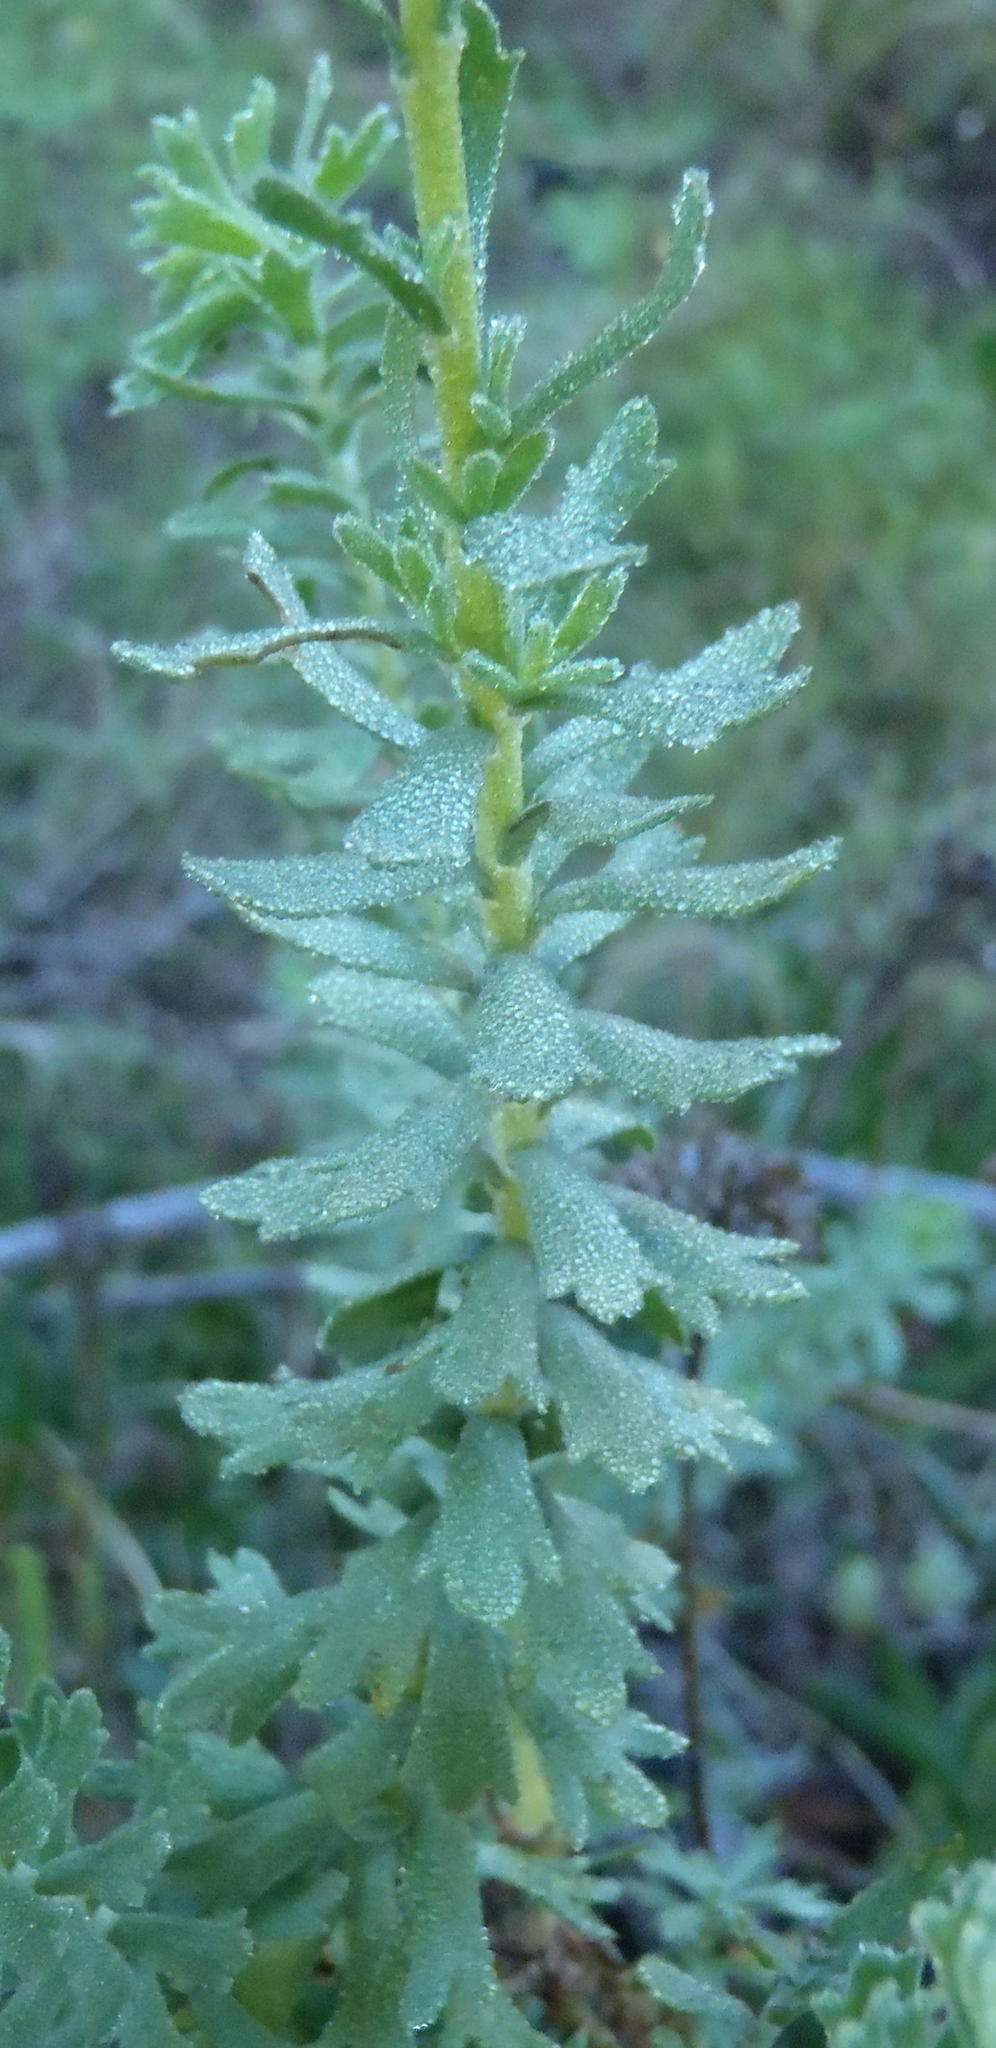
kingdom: Plantae
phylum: Tracheophyta
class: Magnoliopsida
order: Asterales
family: Asteraceae
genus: Athanasia
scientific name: Athanasia trifurcata
